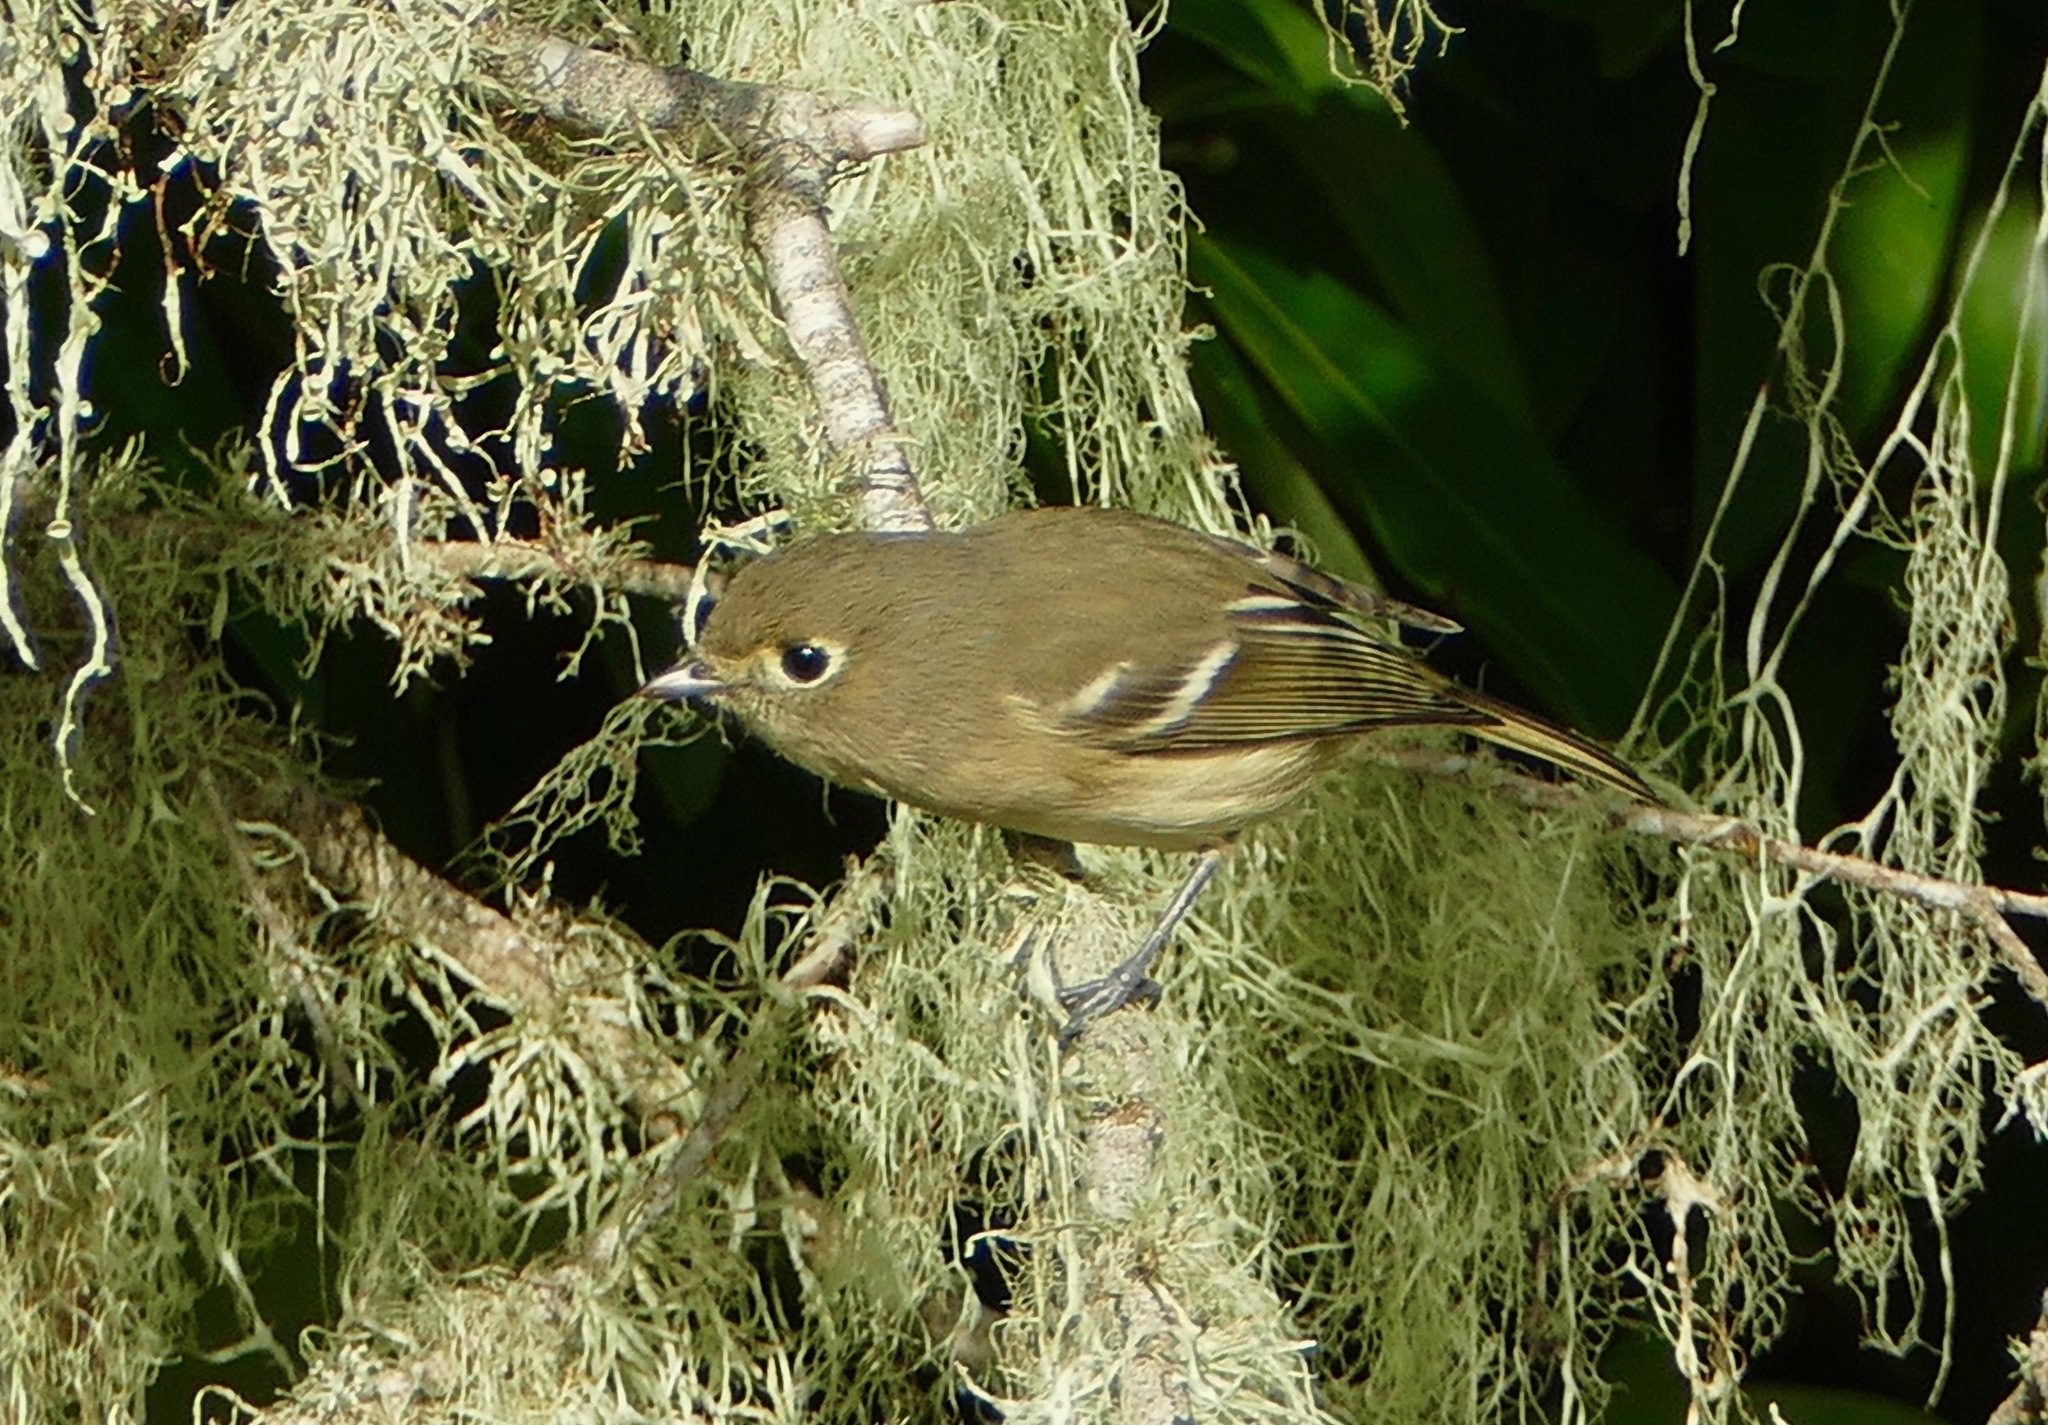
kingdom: Animalia
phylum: Chordata
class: Aves
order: Passeriformes
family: Regulidae
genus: Regulus
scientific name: Regulus calendula
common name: Ruby-crowned kinglet
